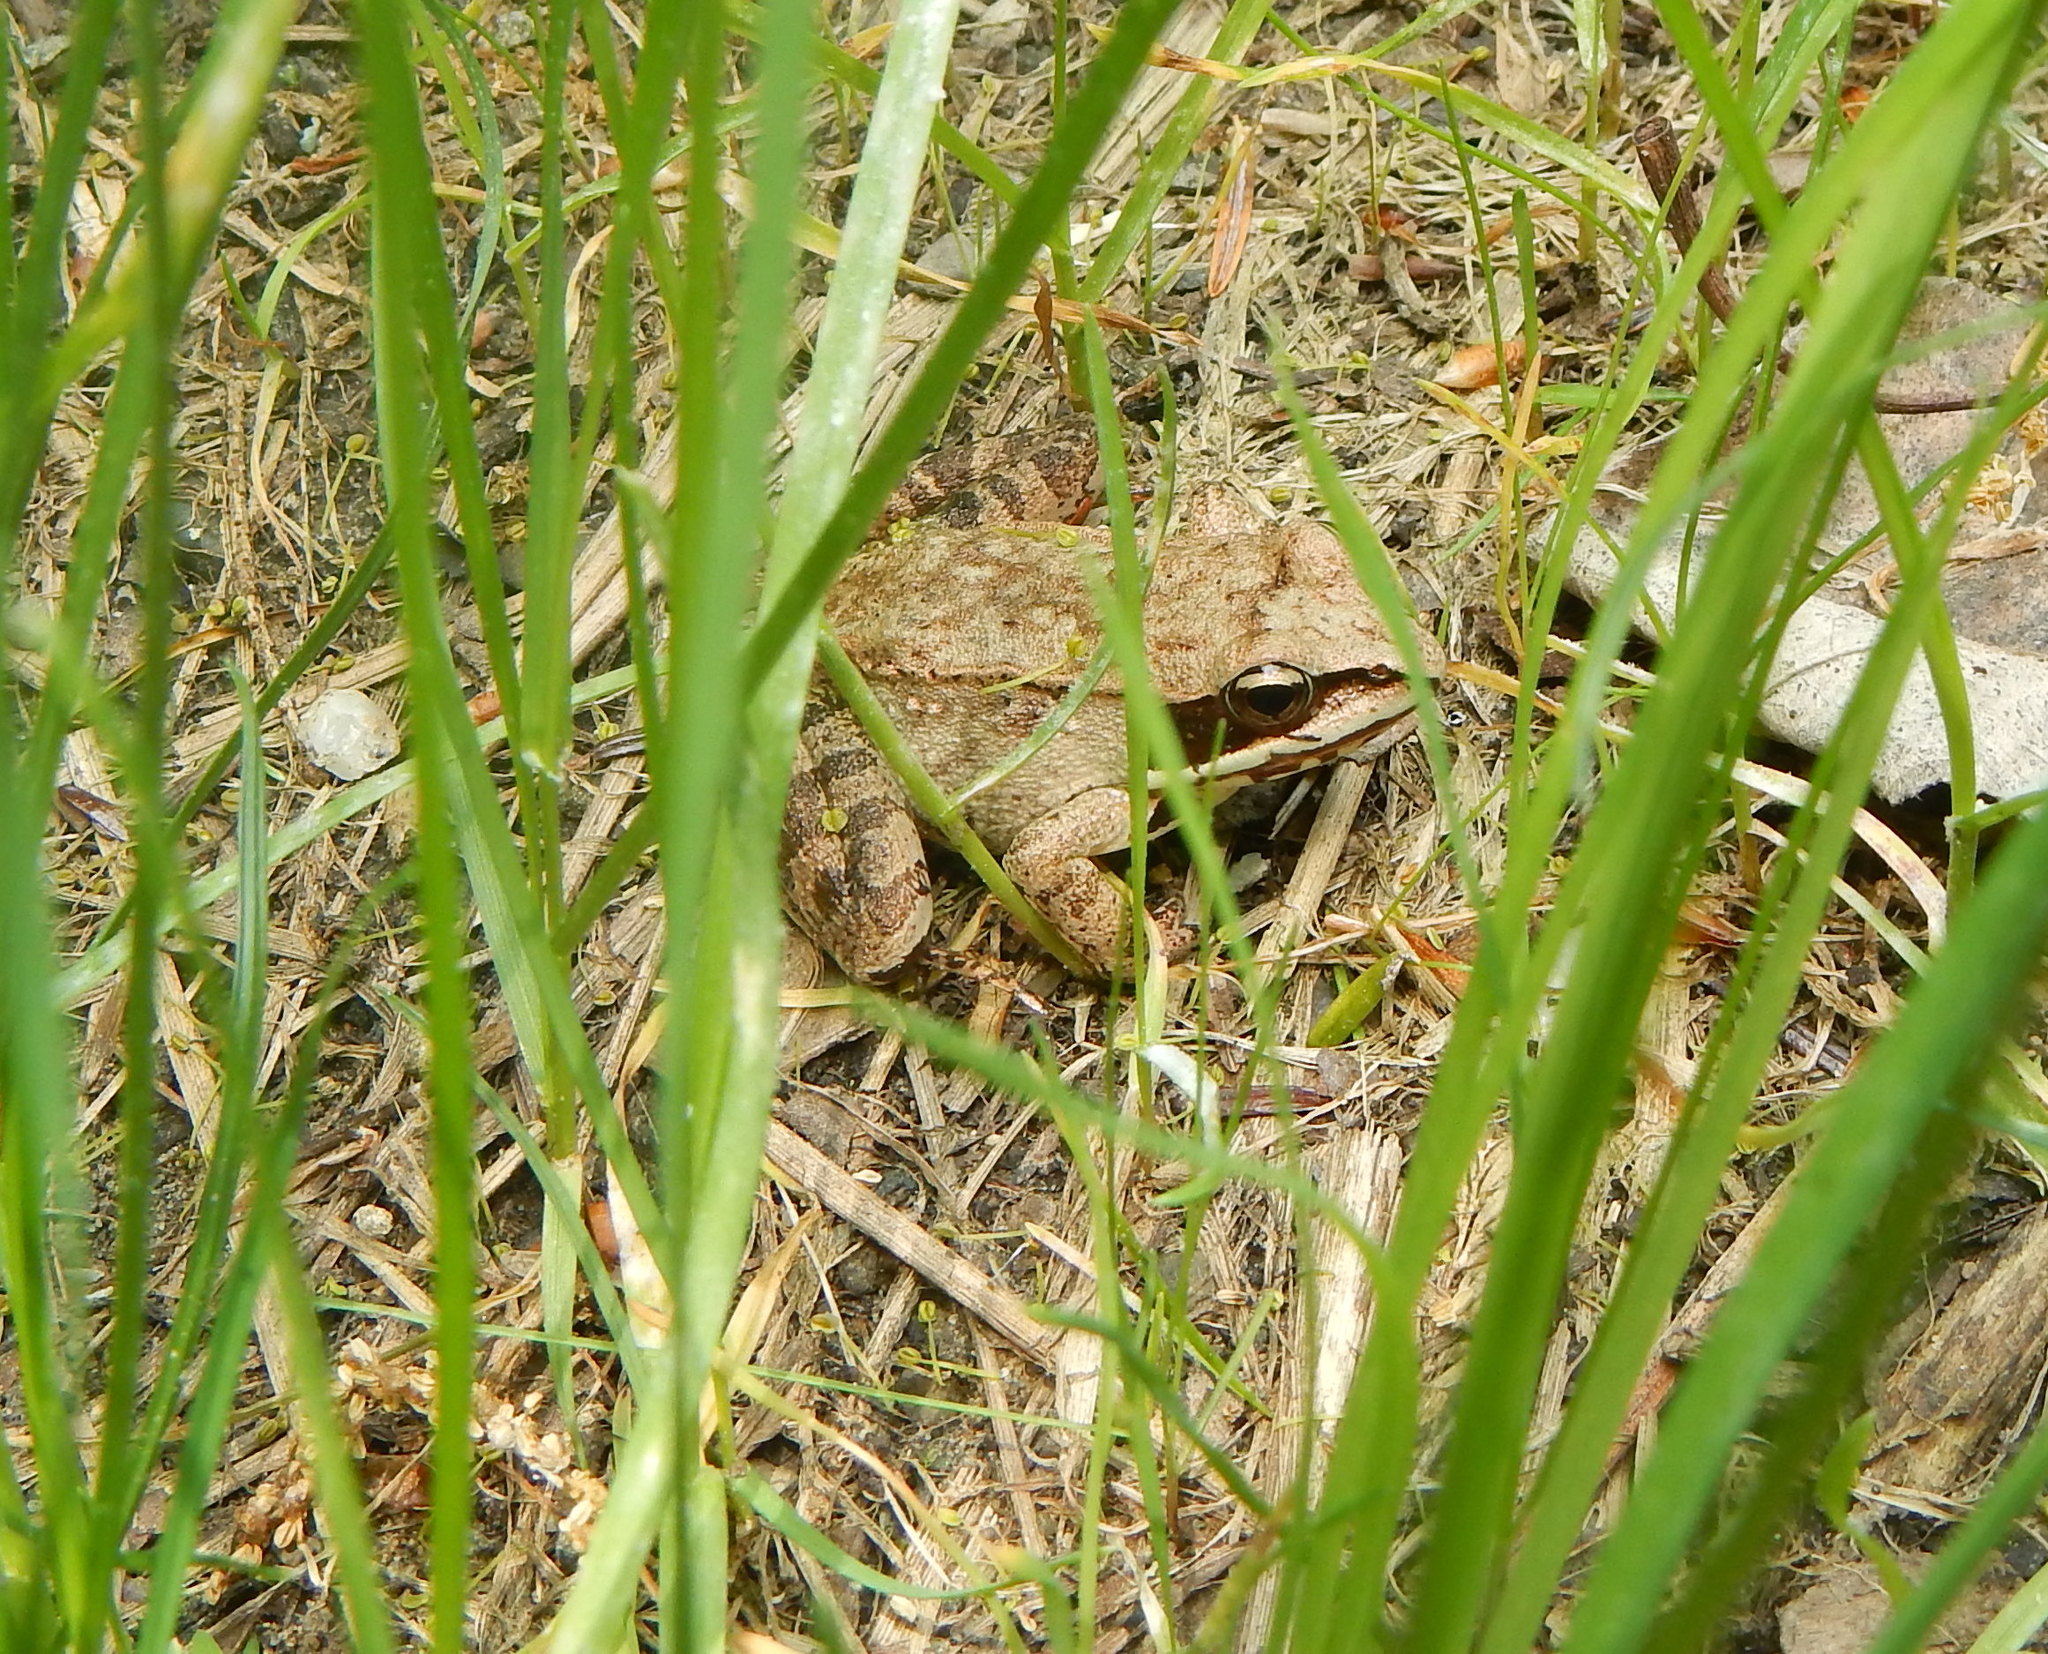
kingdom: Animalia
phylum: Chordata
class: Amphibia
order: Anura
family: Ranidae
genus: Lithobates
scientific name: Lithobates sylvaticus
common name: Wood frog
